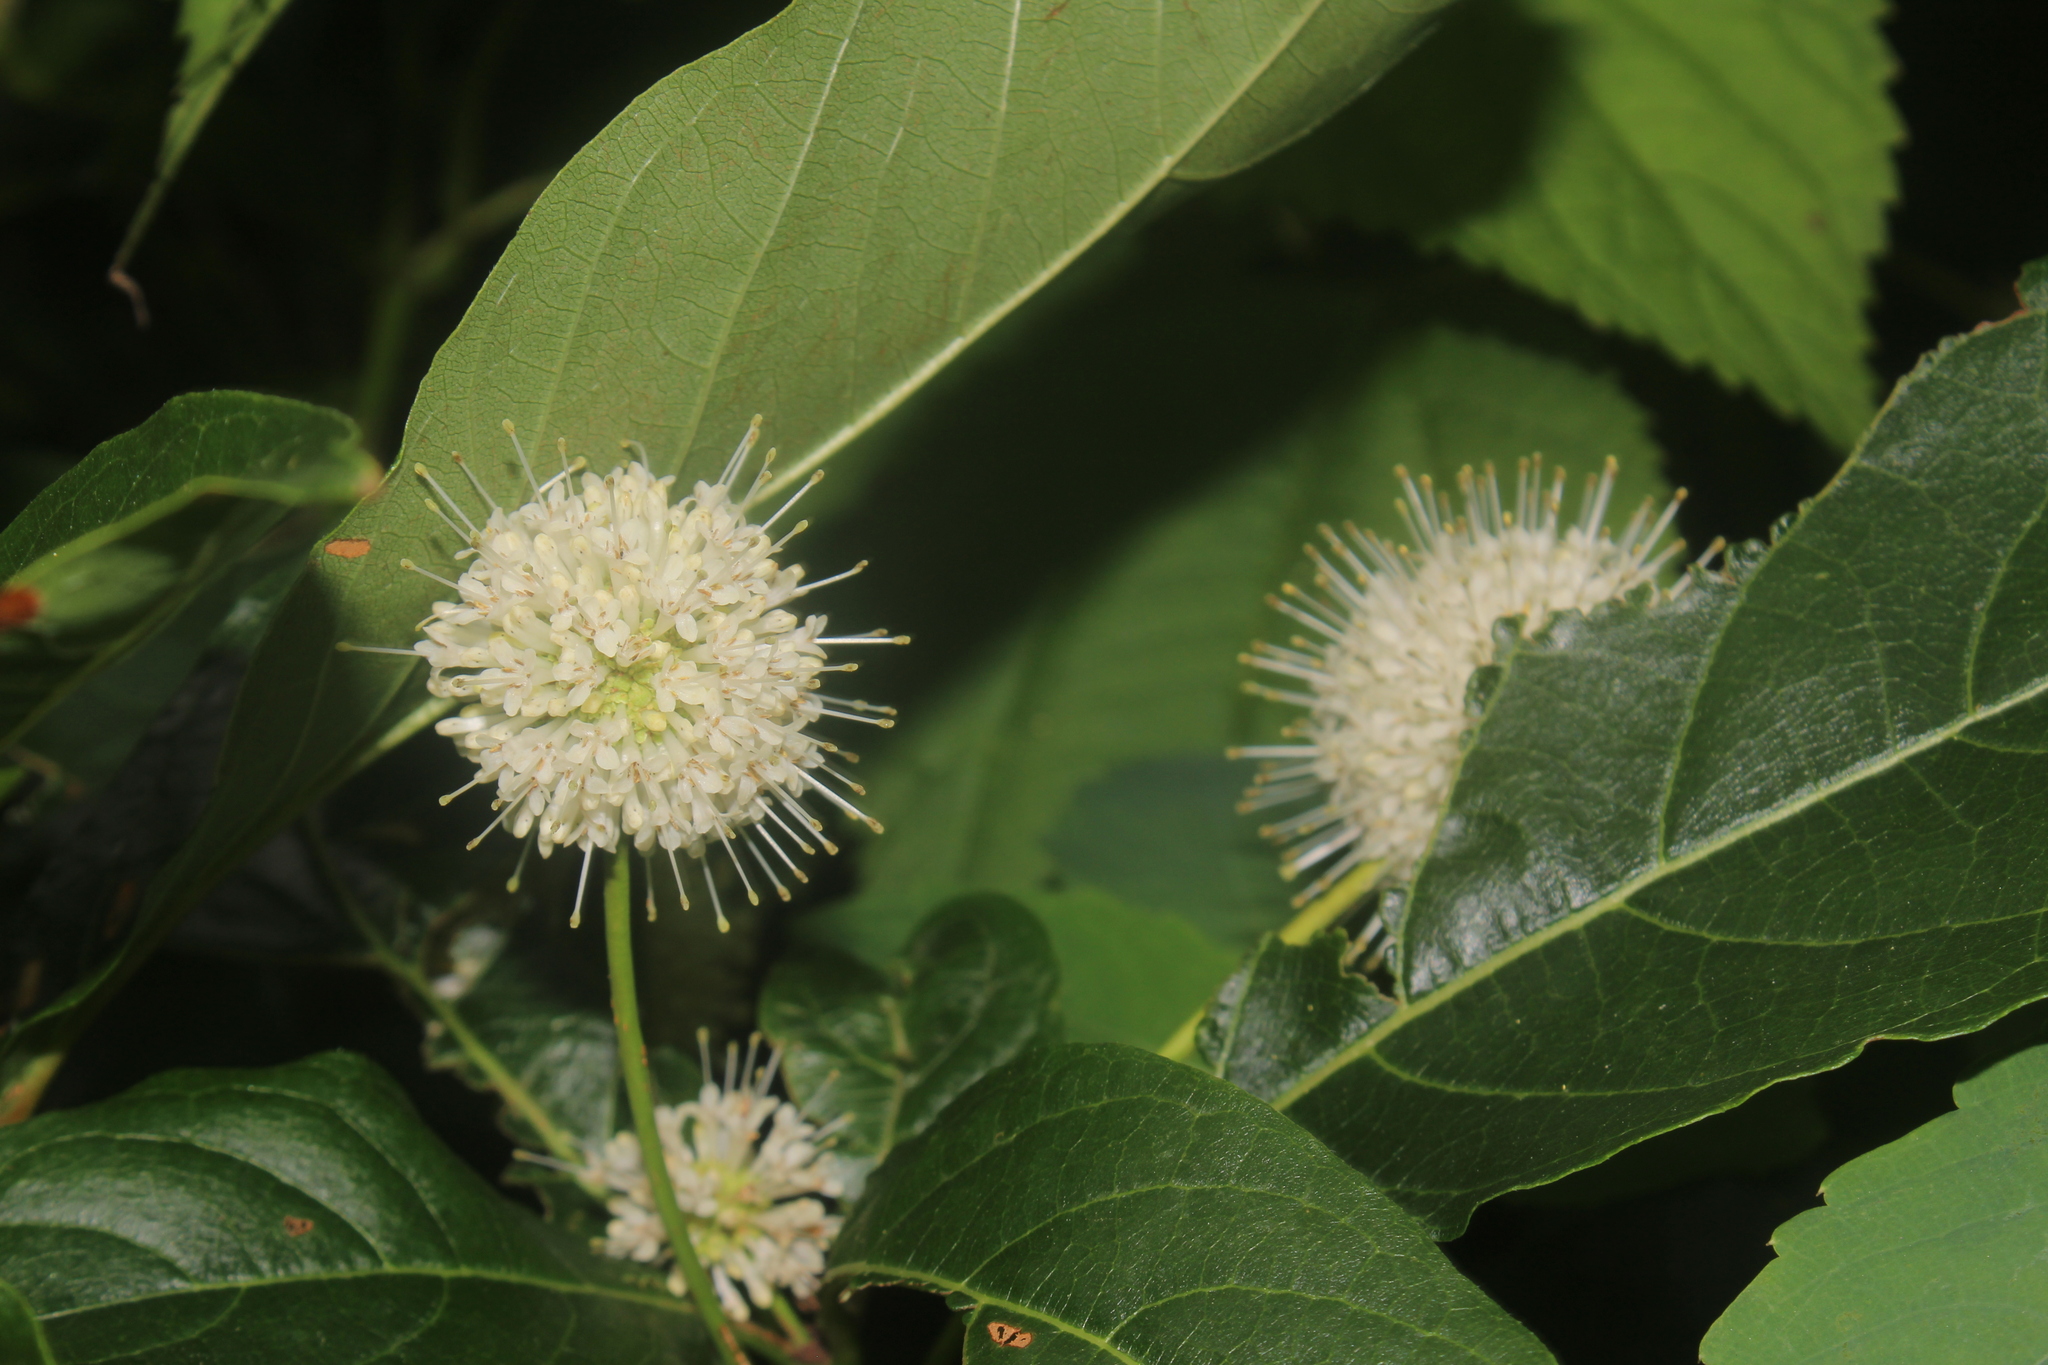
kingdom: Plantae
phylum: Tracheophyta
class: Magnoliopsida
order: Gentianales
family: Rubiaceae
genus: Cephalanthus
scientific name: Cephalanthus occidentalis
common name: Button-willow
